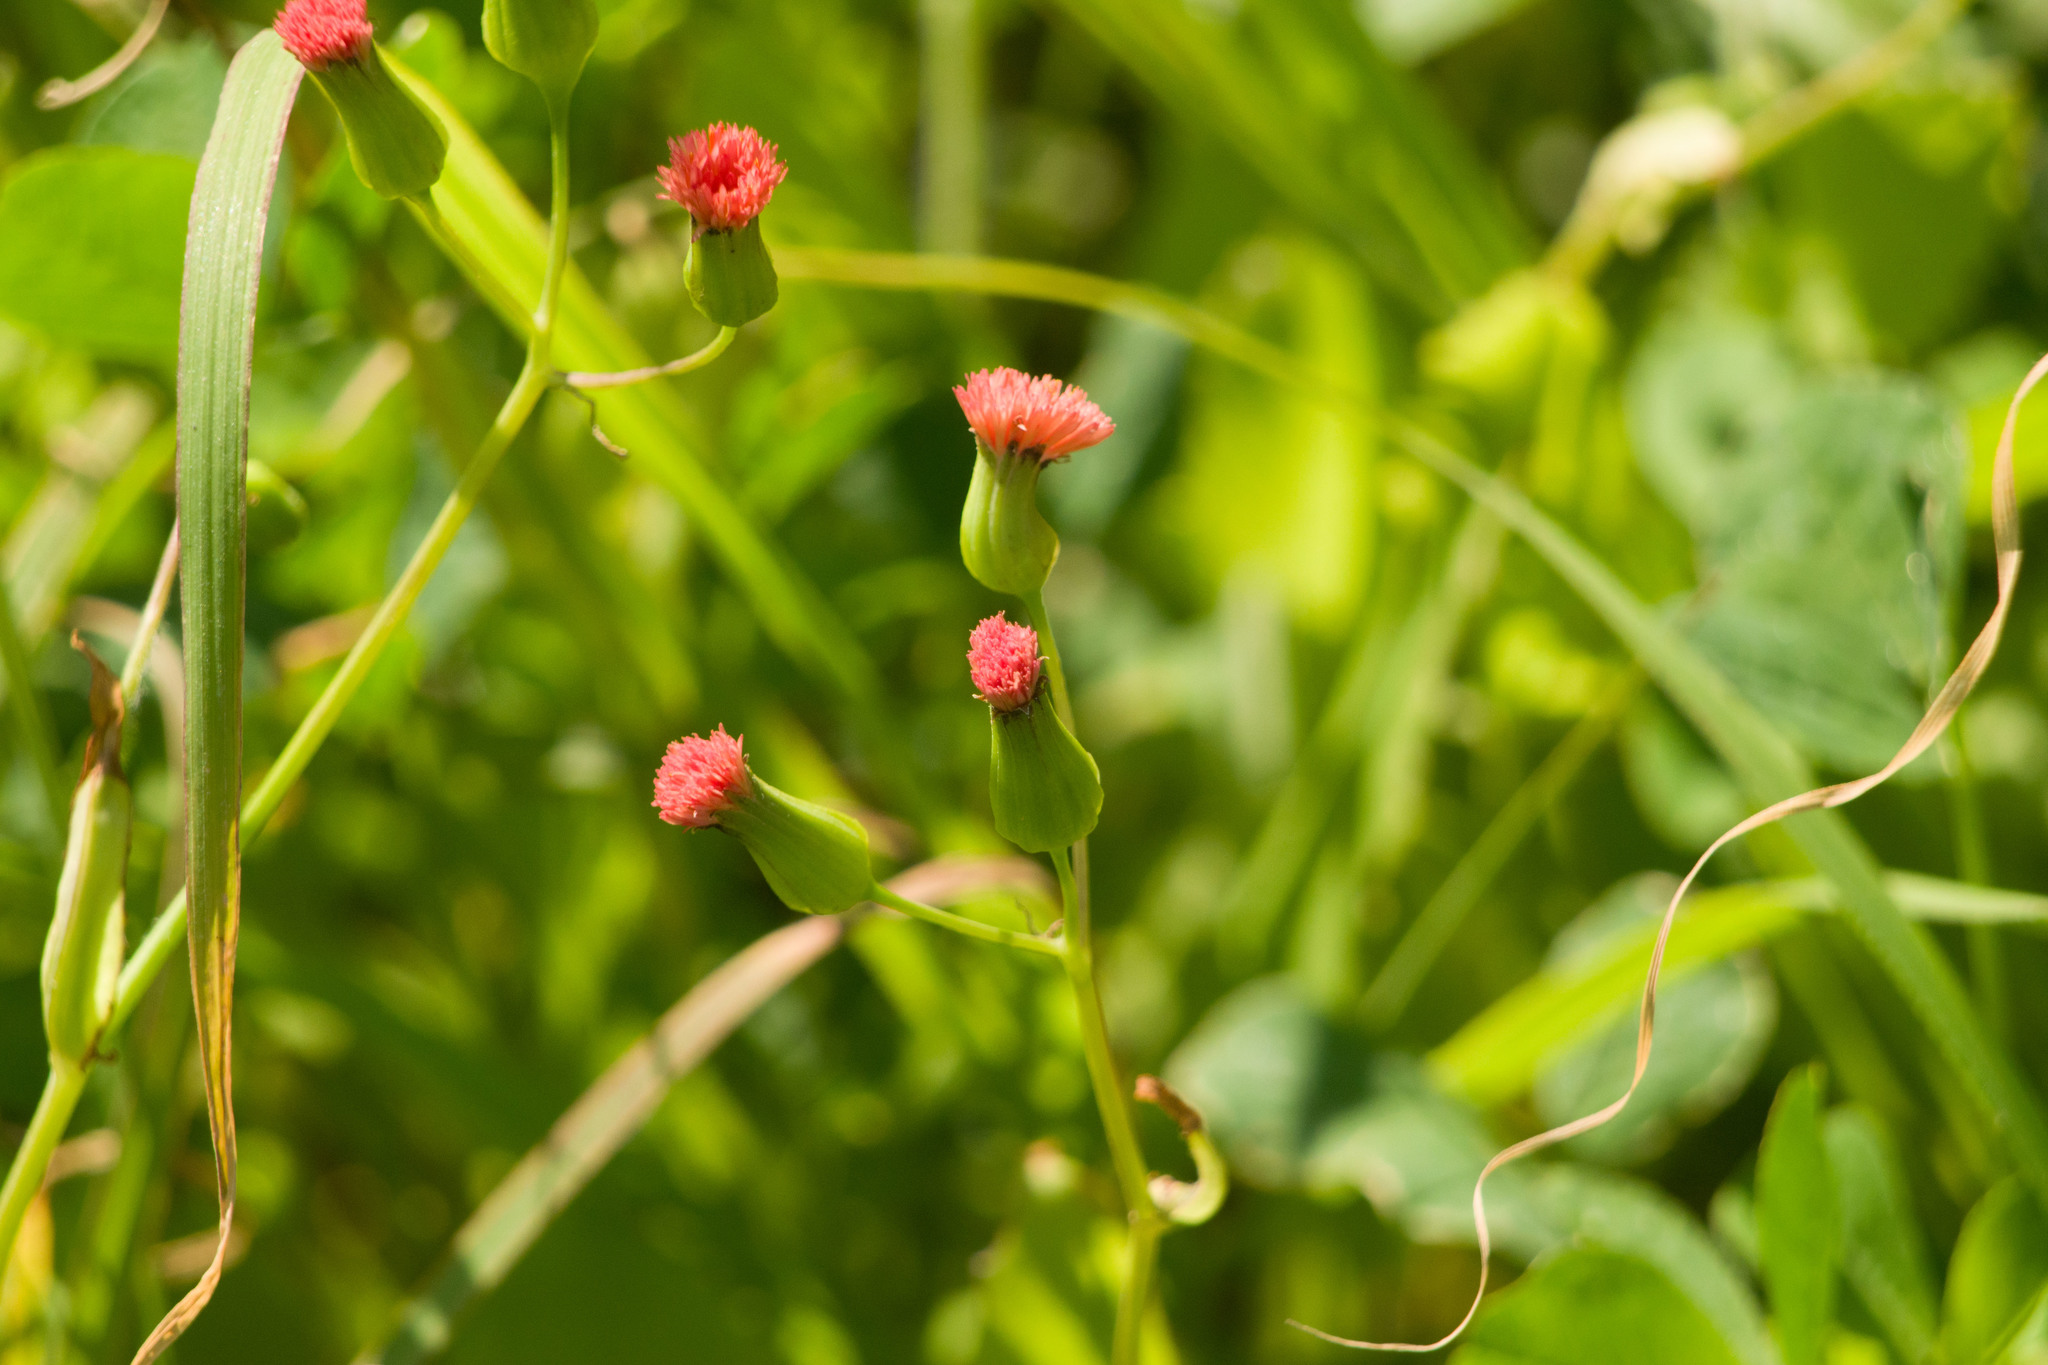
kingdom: Plantae
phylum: Tracheophyta
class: Magnoliopsida
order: Asterales
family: Asteraceae
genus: Emilia
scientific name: Emilia fosbergii
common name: Florida tasselflower
